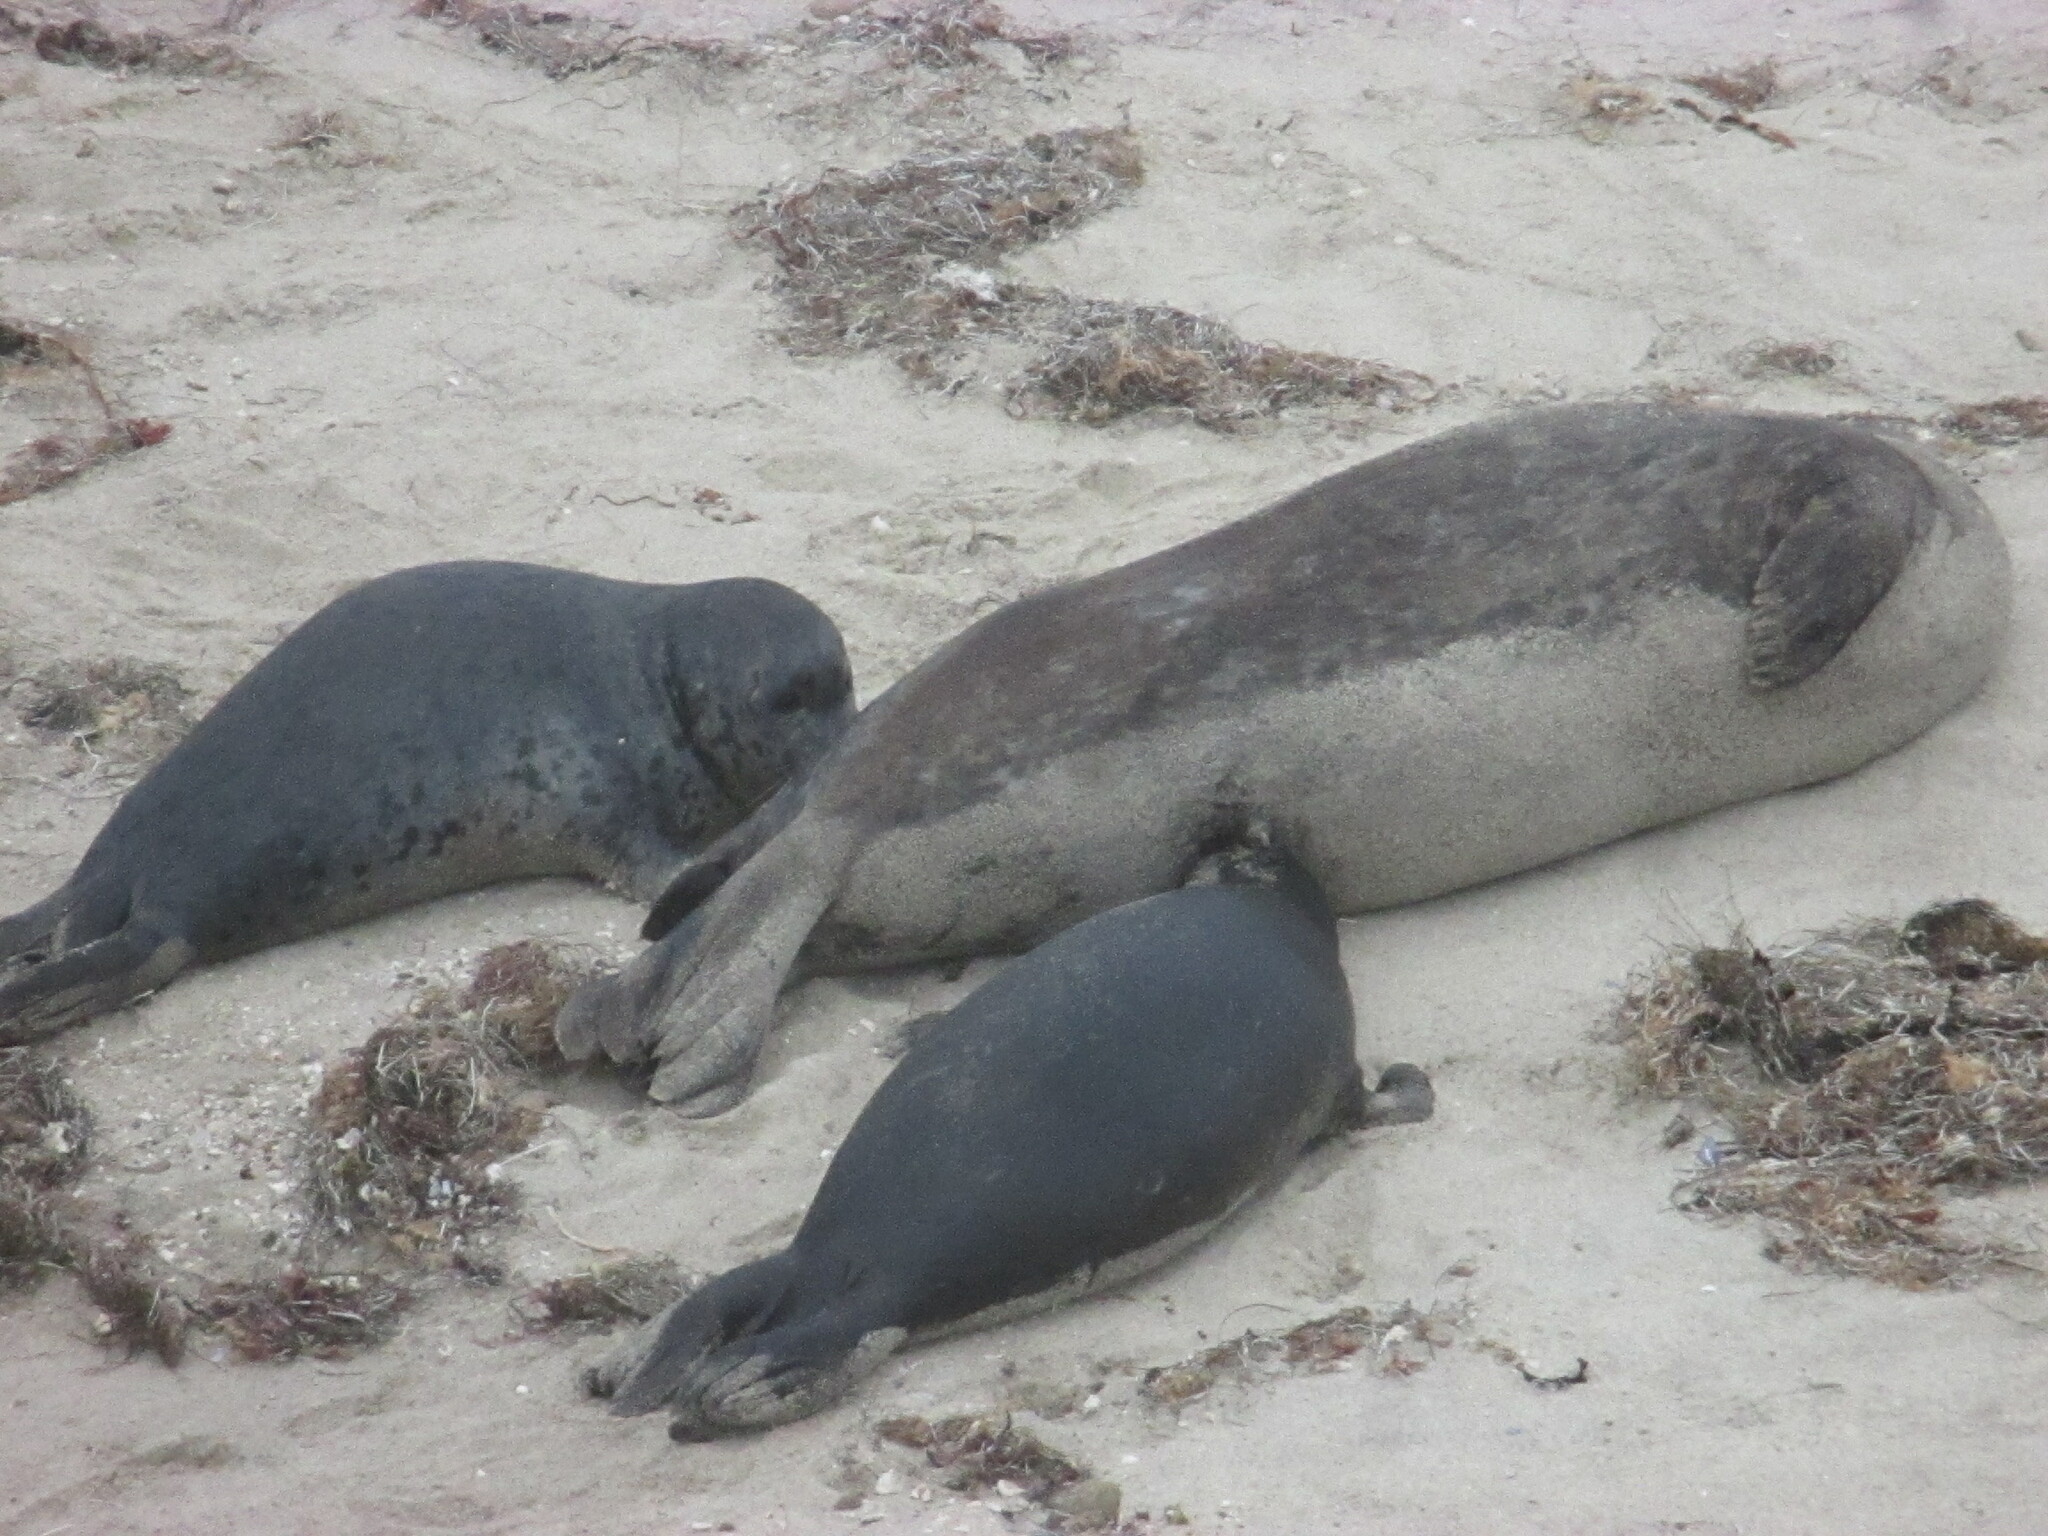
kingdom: Animalia
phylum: Chordata
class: Mammalia
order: Carnivora
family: Phocidae
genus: Phoca
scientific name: Phoca vitulina
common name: Harbor seal
